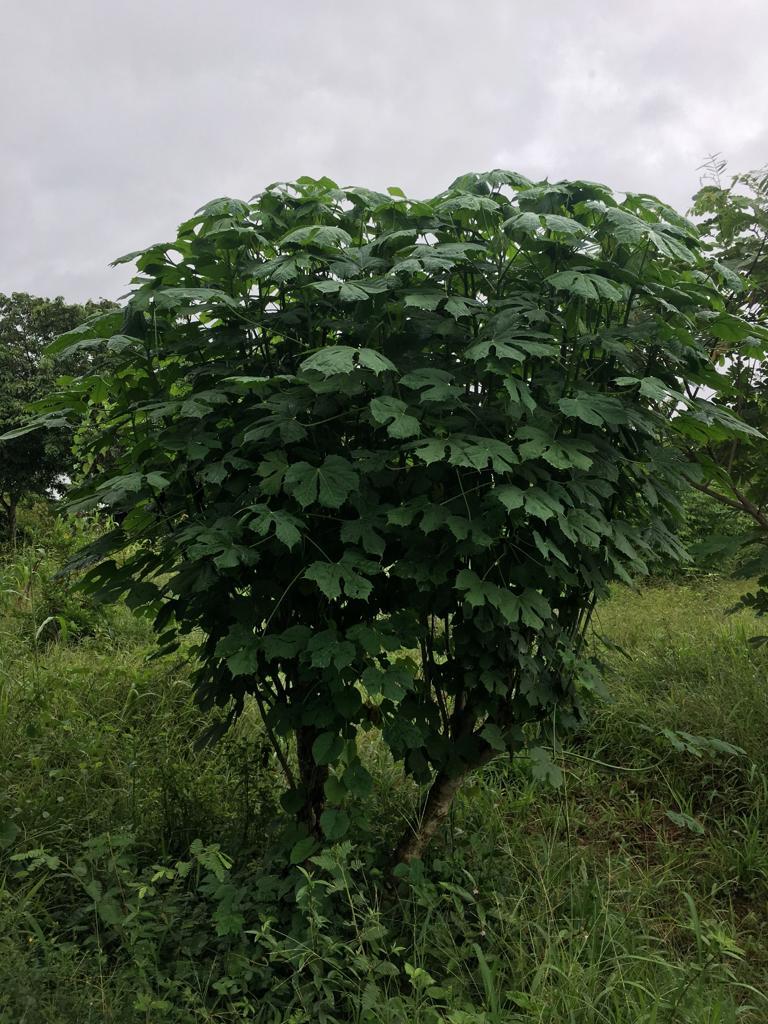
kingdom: Plantae
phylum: Tracheophyta
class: Magnoliopsida
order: Malpighiales
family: Euphorbiaceae
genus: Cnidoscolus
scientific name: Cnidoscolus aconitifolius
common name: Cabbage-star
